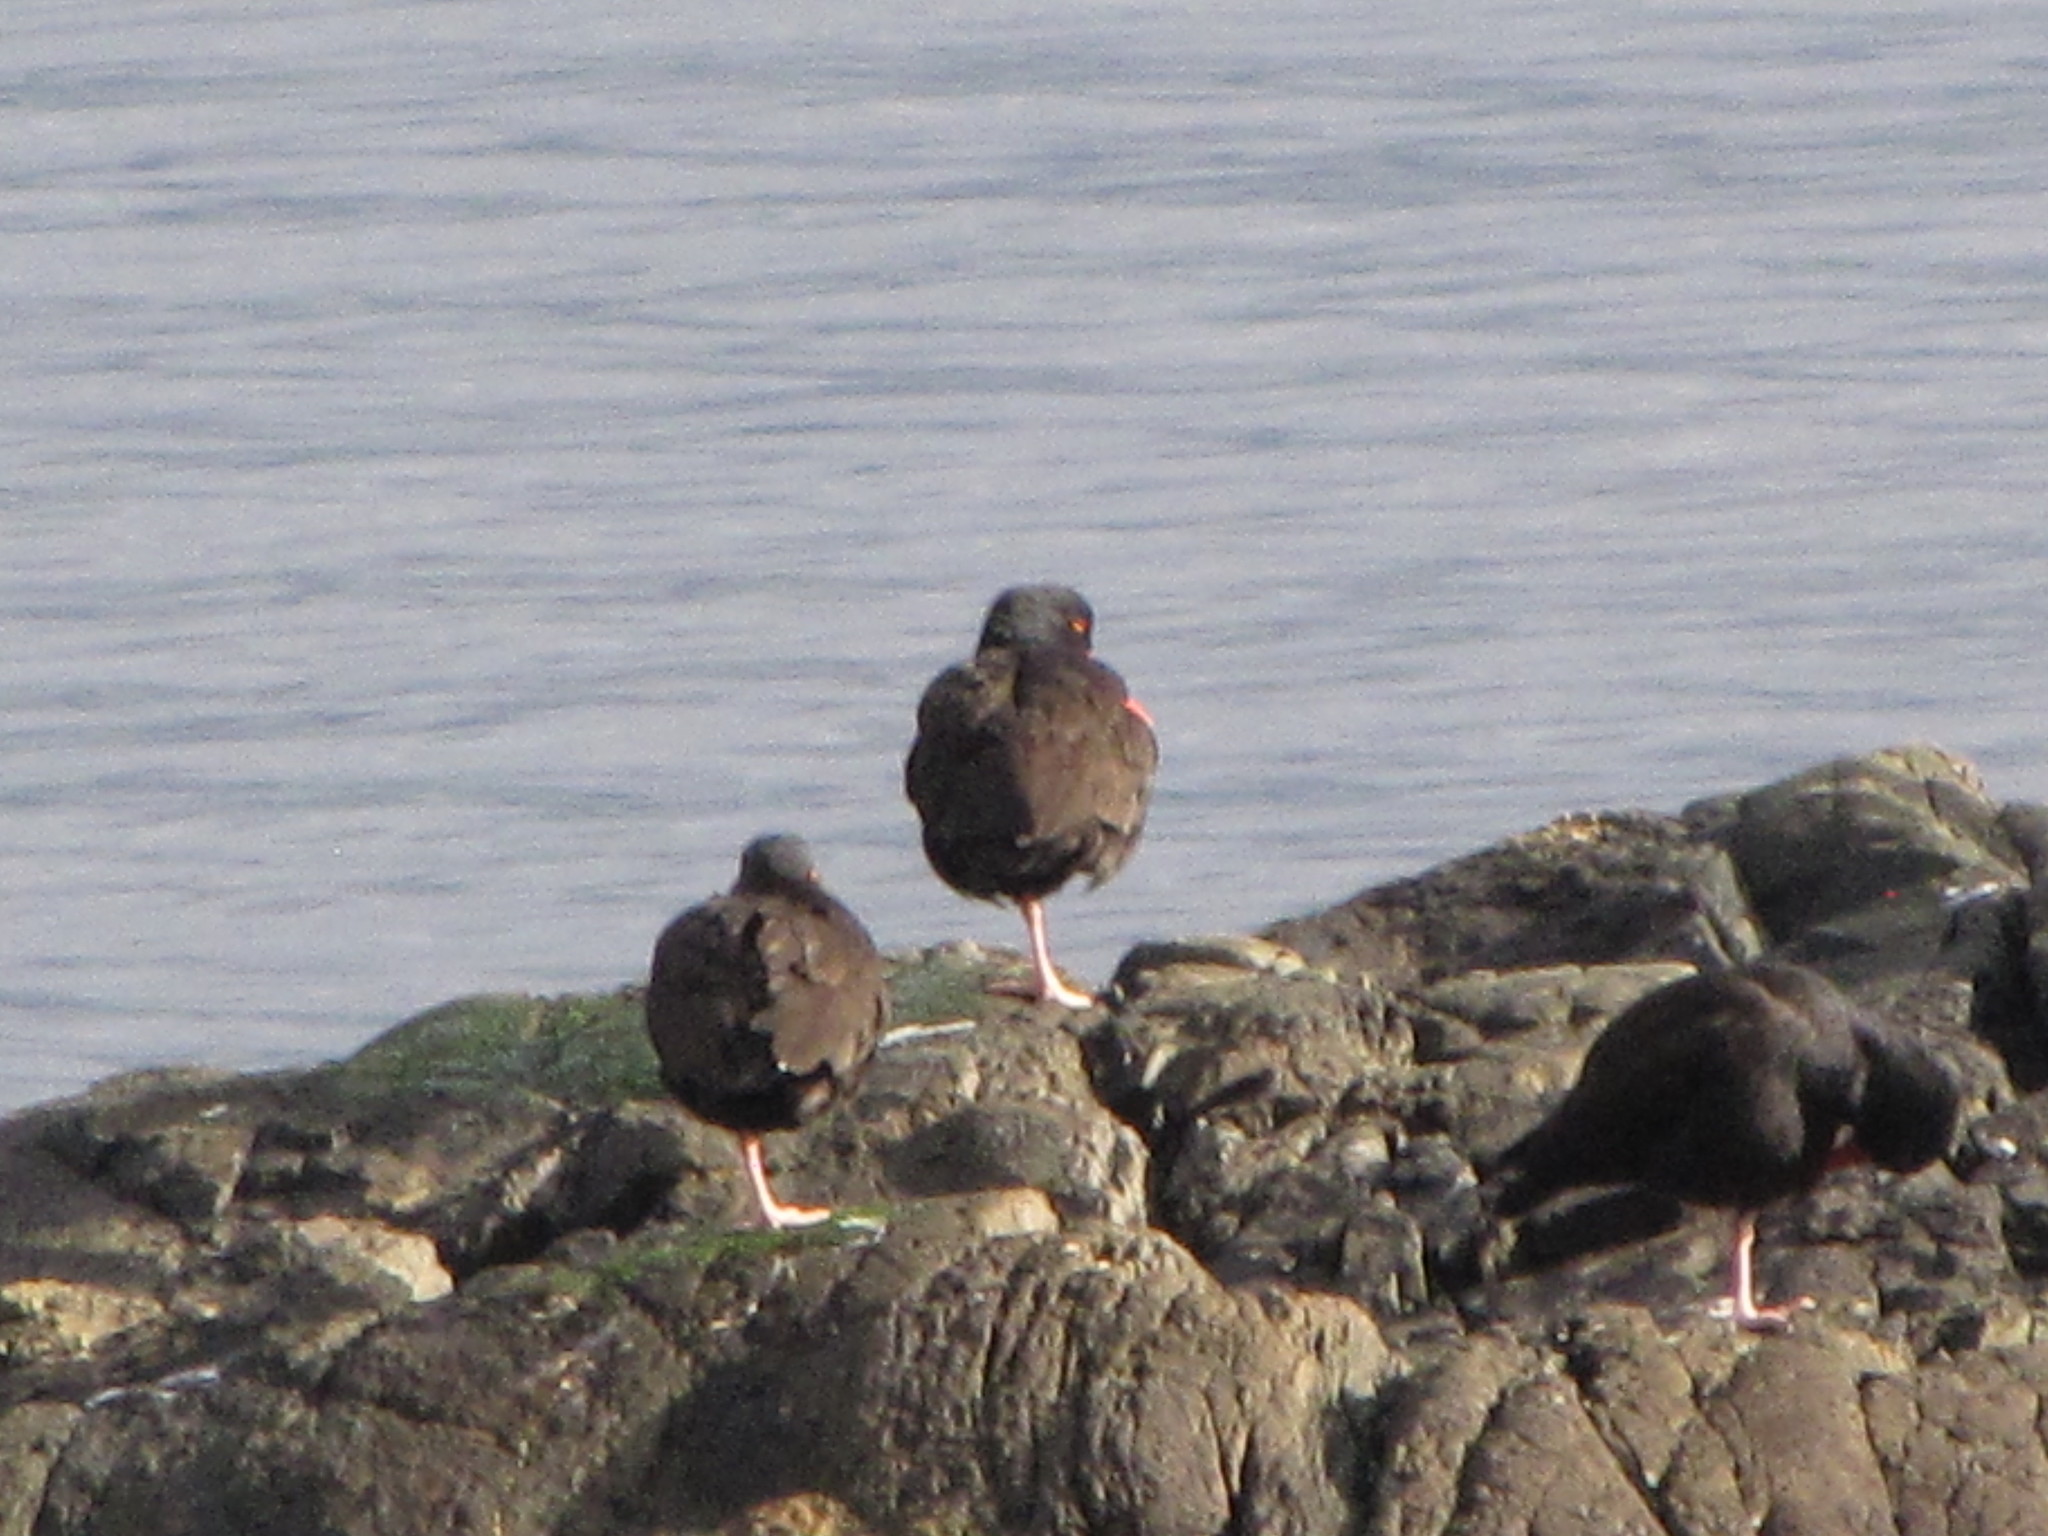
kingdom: Animalia
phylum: Chordata
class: Aves
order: Charadriiformes
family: Haematopodidae
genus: Haematopus
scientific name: Haematopus bachmani
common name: Black oystercatcher
